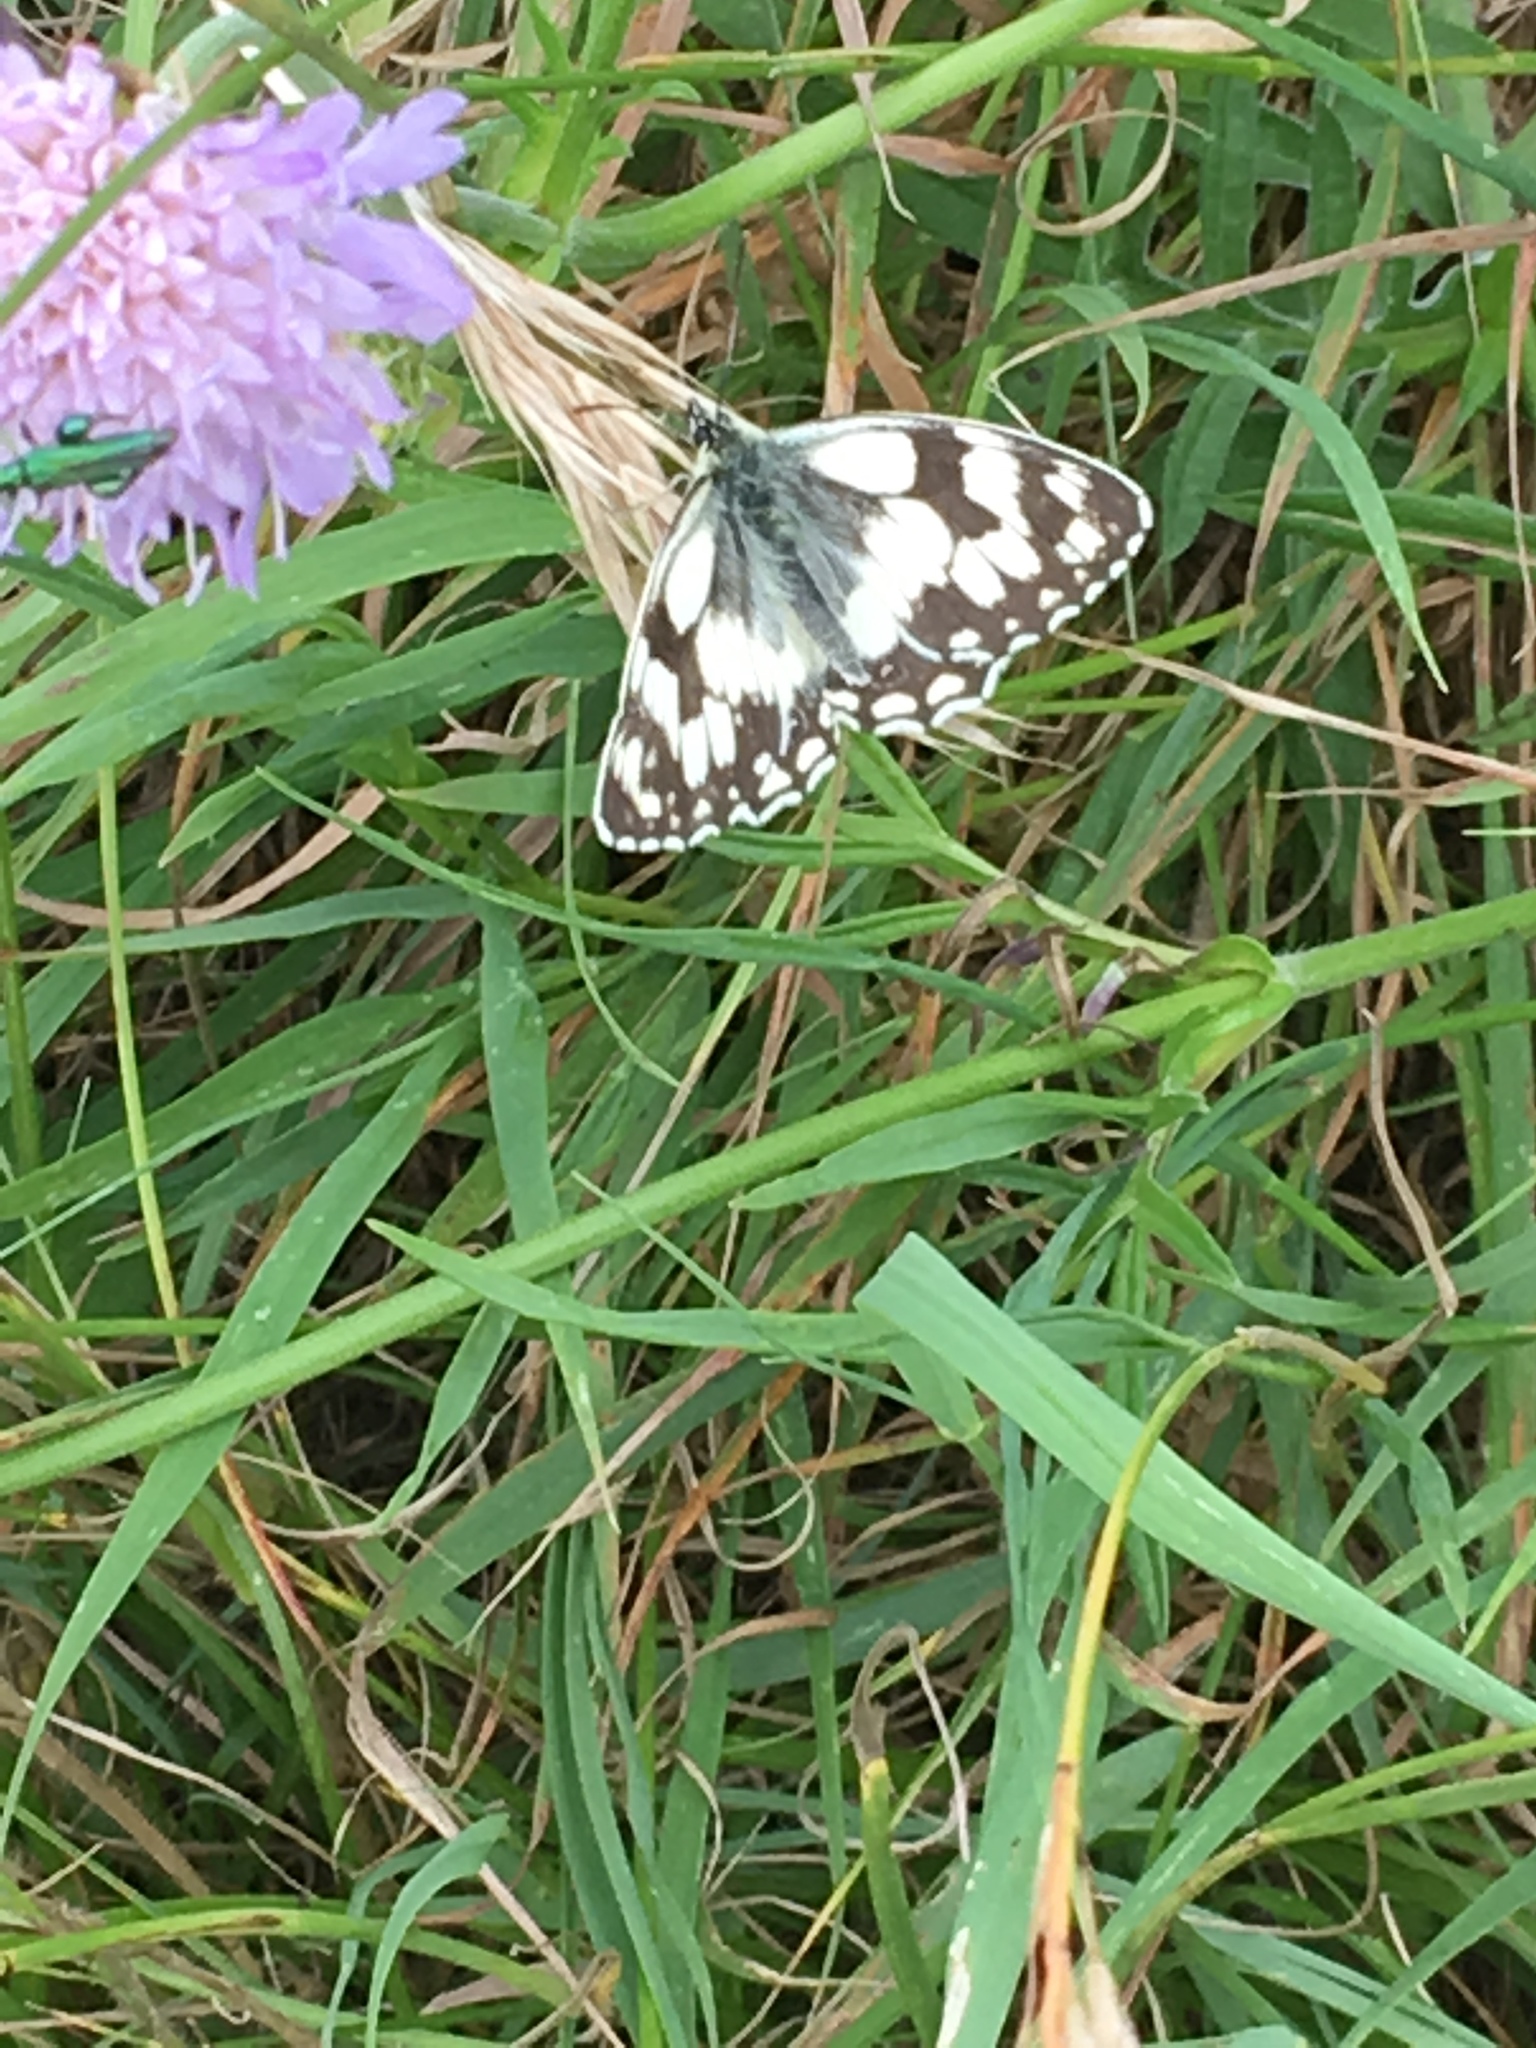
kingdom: Animalia
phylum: Arthropoda
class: Insecta
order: Lepidoptera
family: Nymphalidae
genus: Melanargia
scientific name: Melanargia galathea
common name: Marbled white
